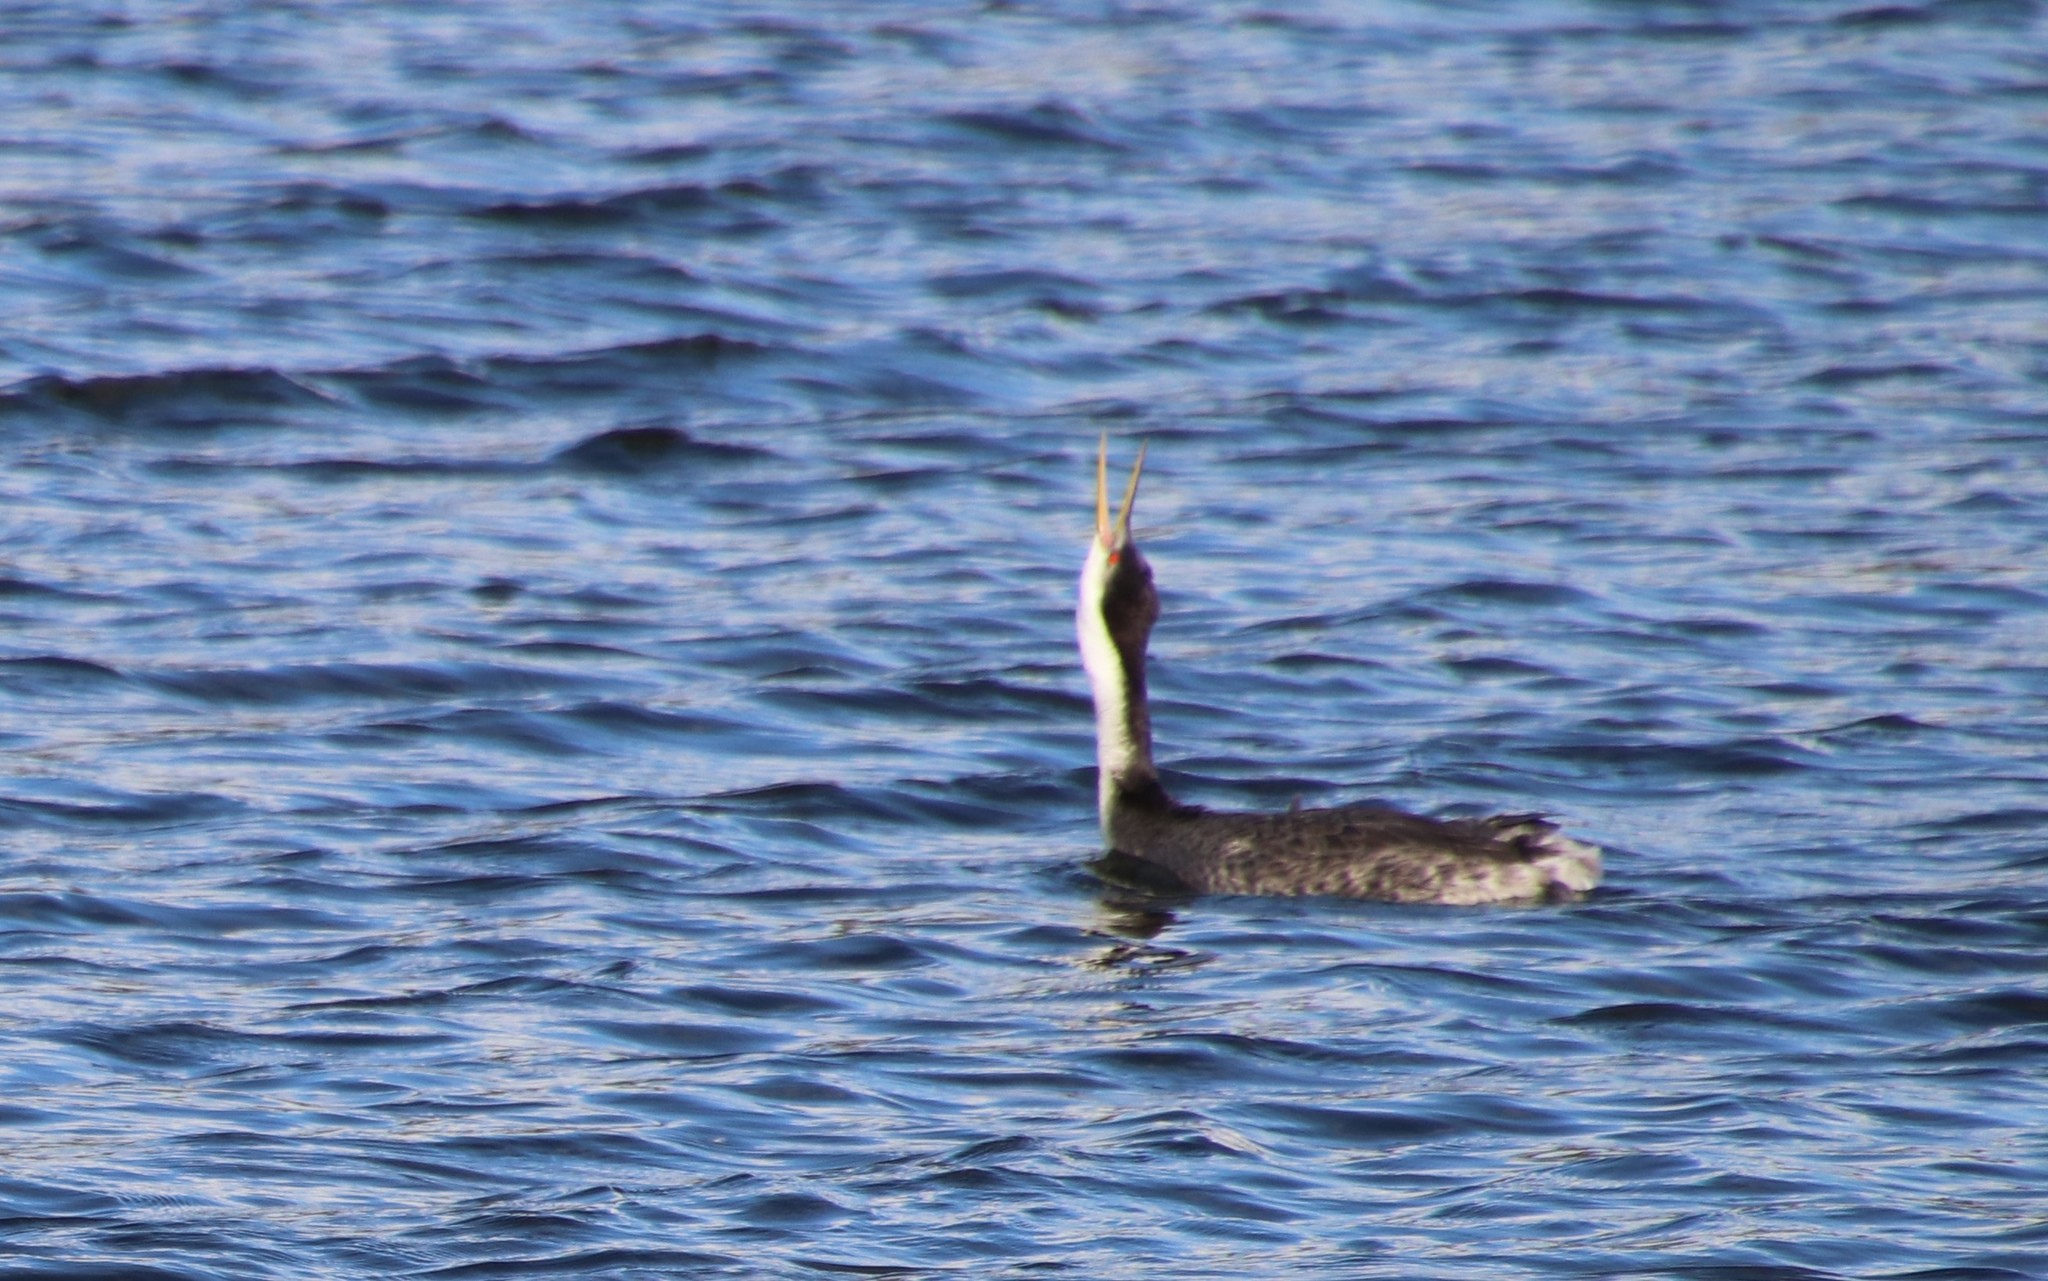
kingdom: Animalia
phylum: Chordata
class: Aves
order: Podicipediformes
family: Podicipedidae
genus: Aechmophorus
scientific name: Aechmophorus clarkii
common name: Clark's grebe
